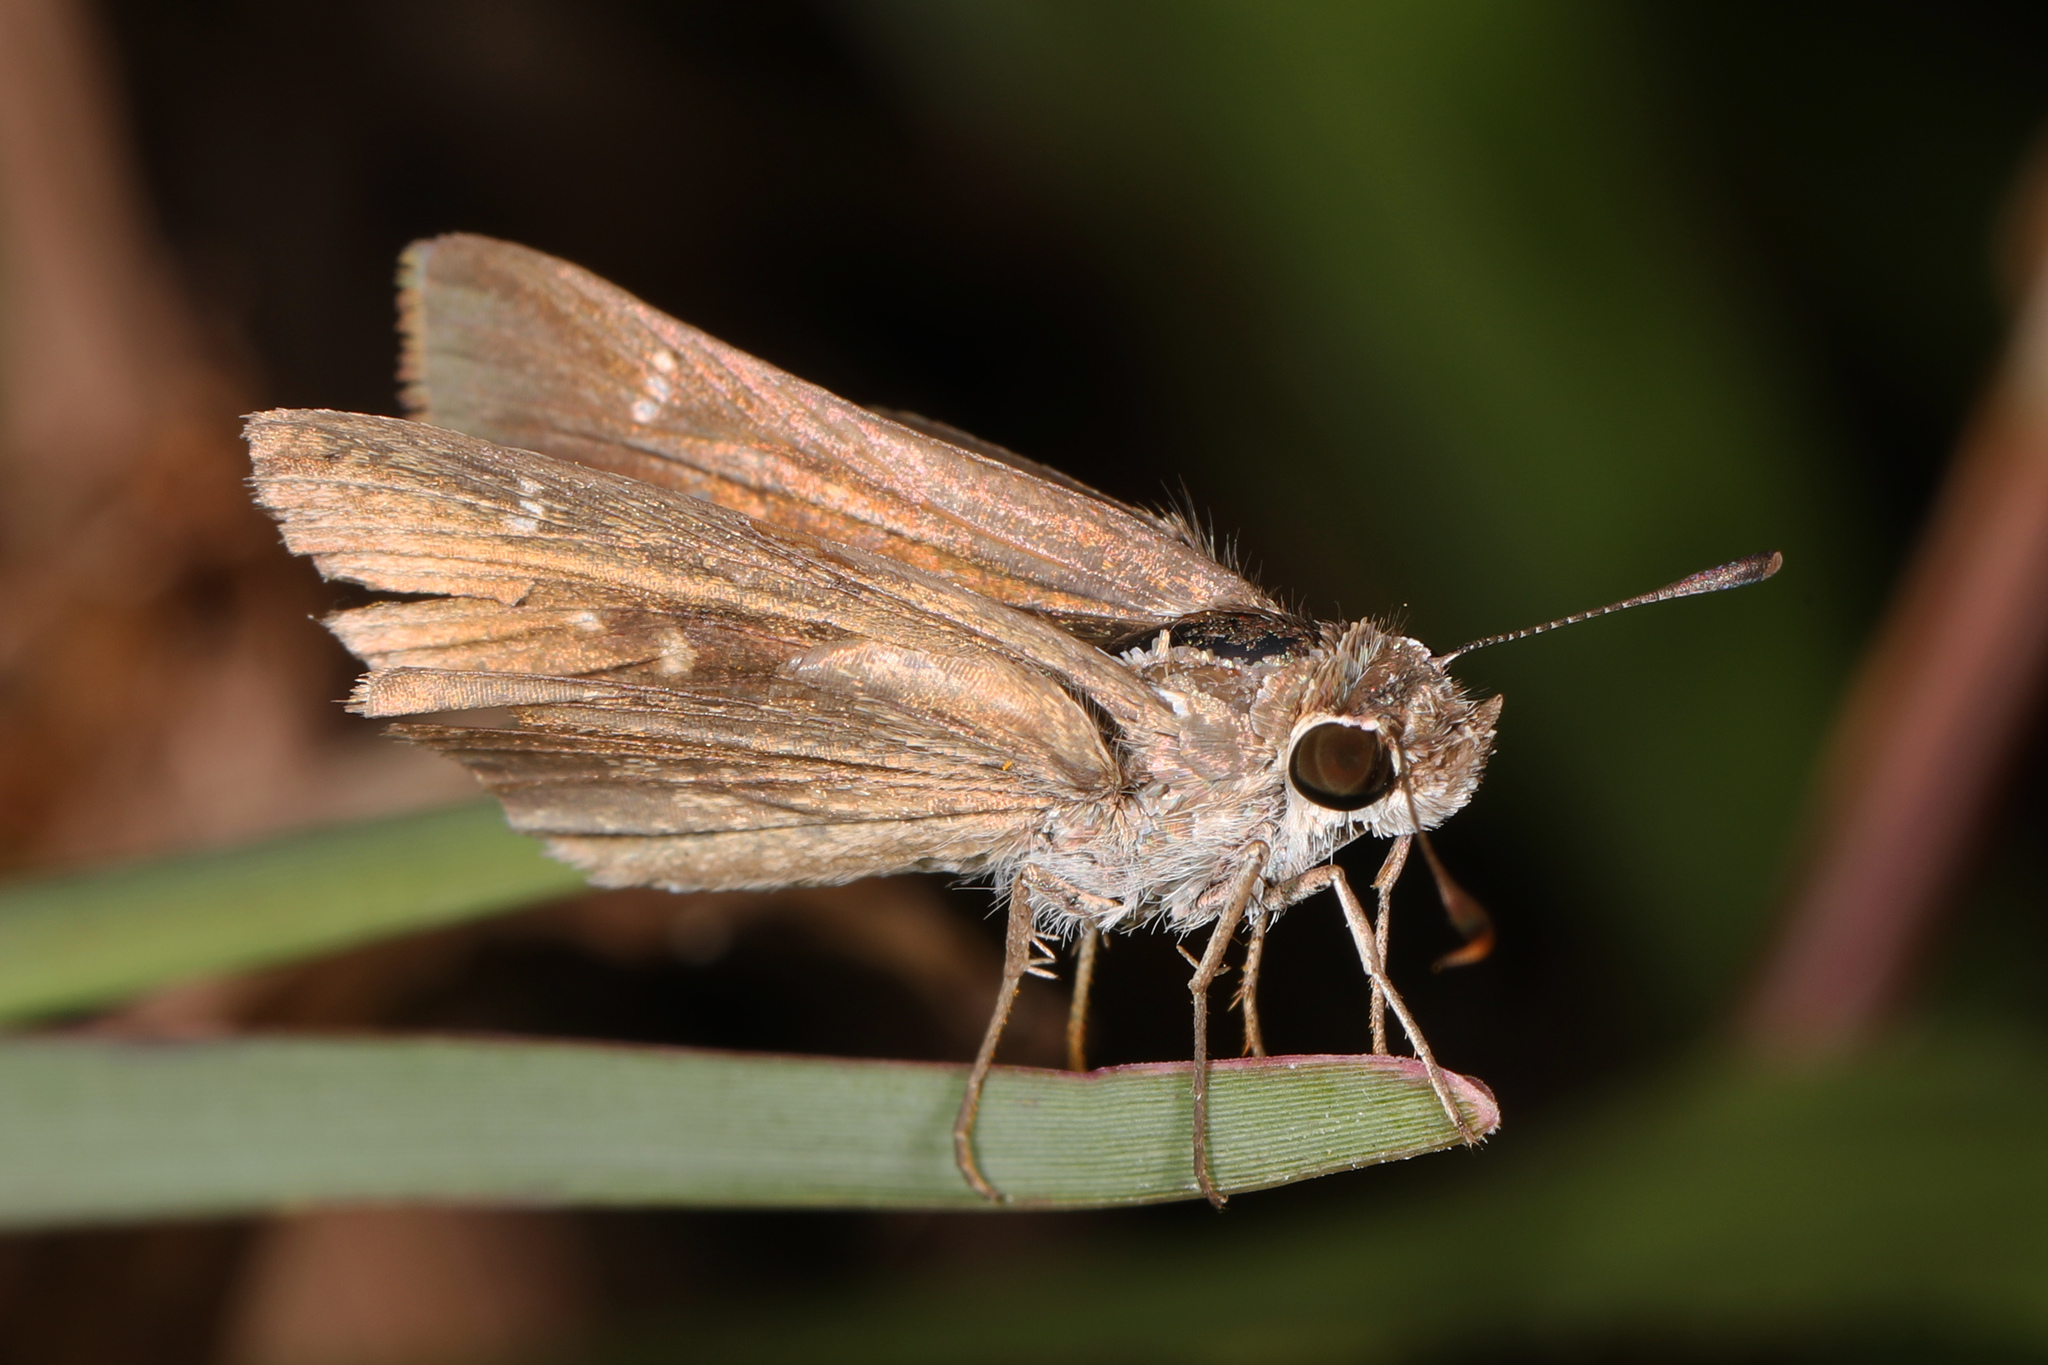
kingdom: Animalia
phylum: Arthropoda
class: Insecta
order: Lepidoptera
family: Hesperiidae
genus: Cymaenes
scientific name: Cymaenes tripunctus
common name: Dingy dotted skipper
